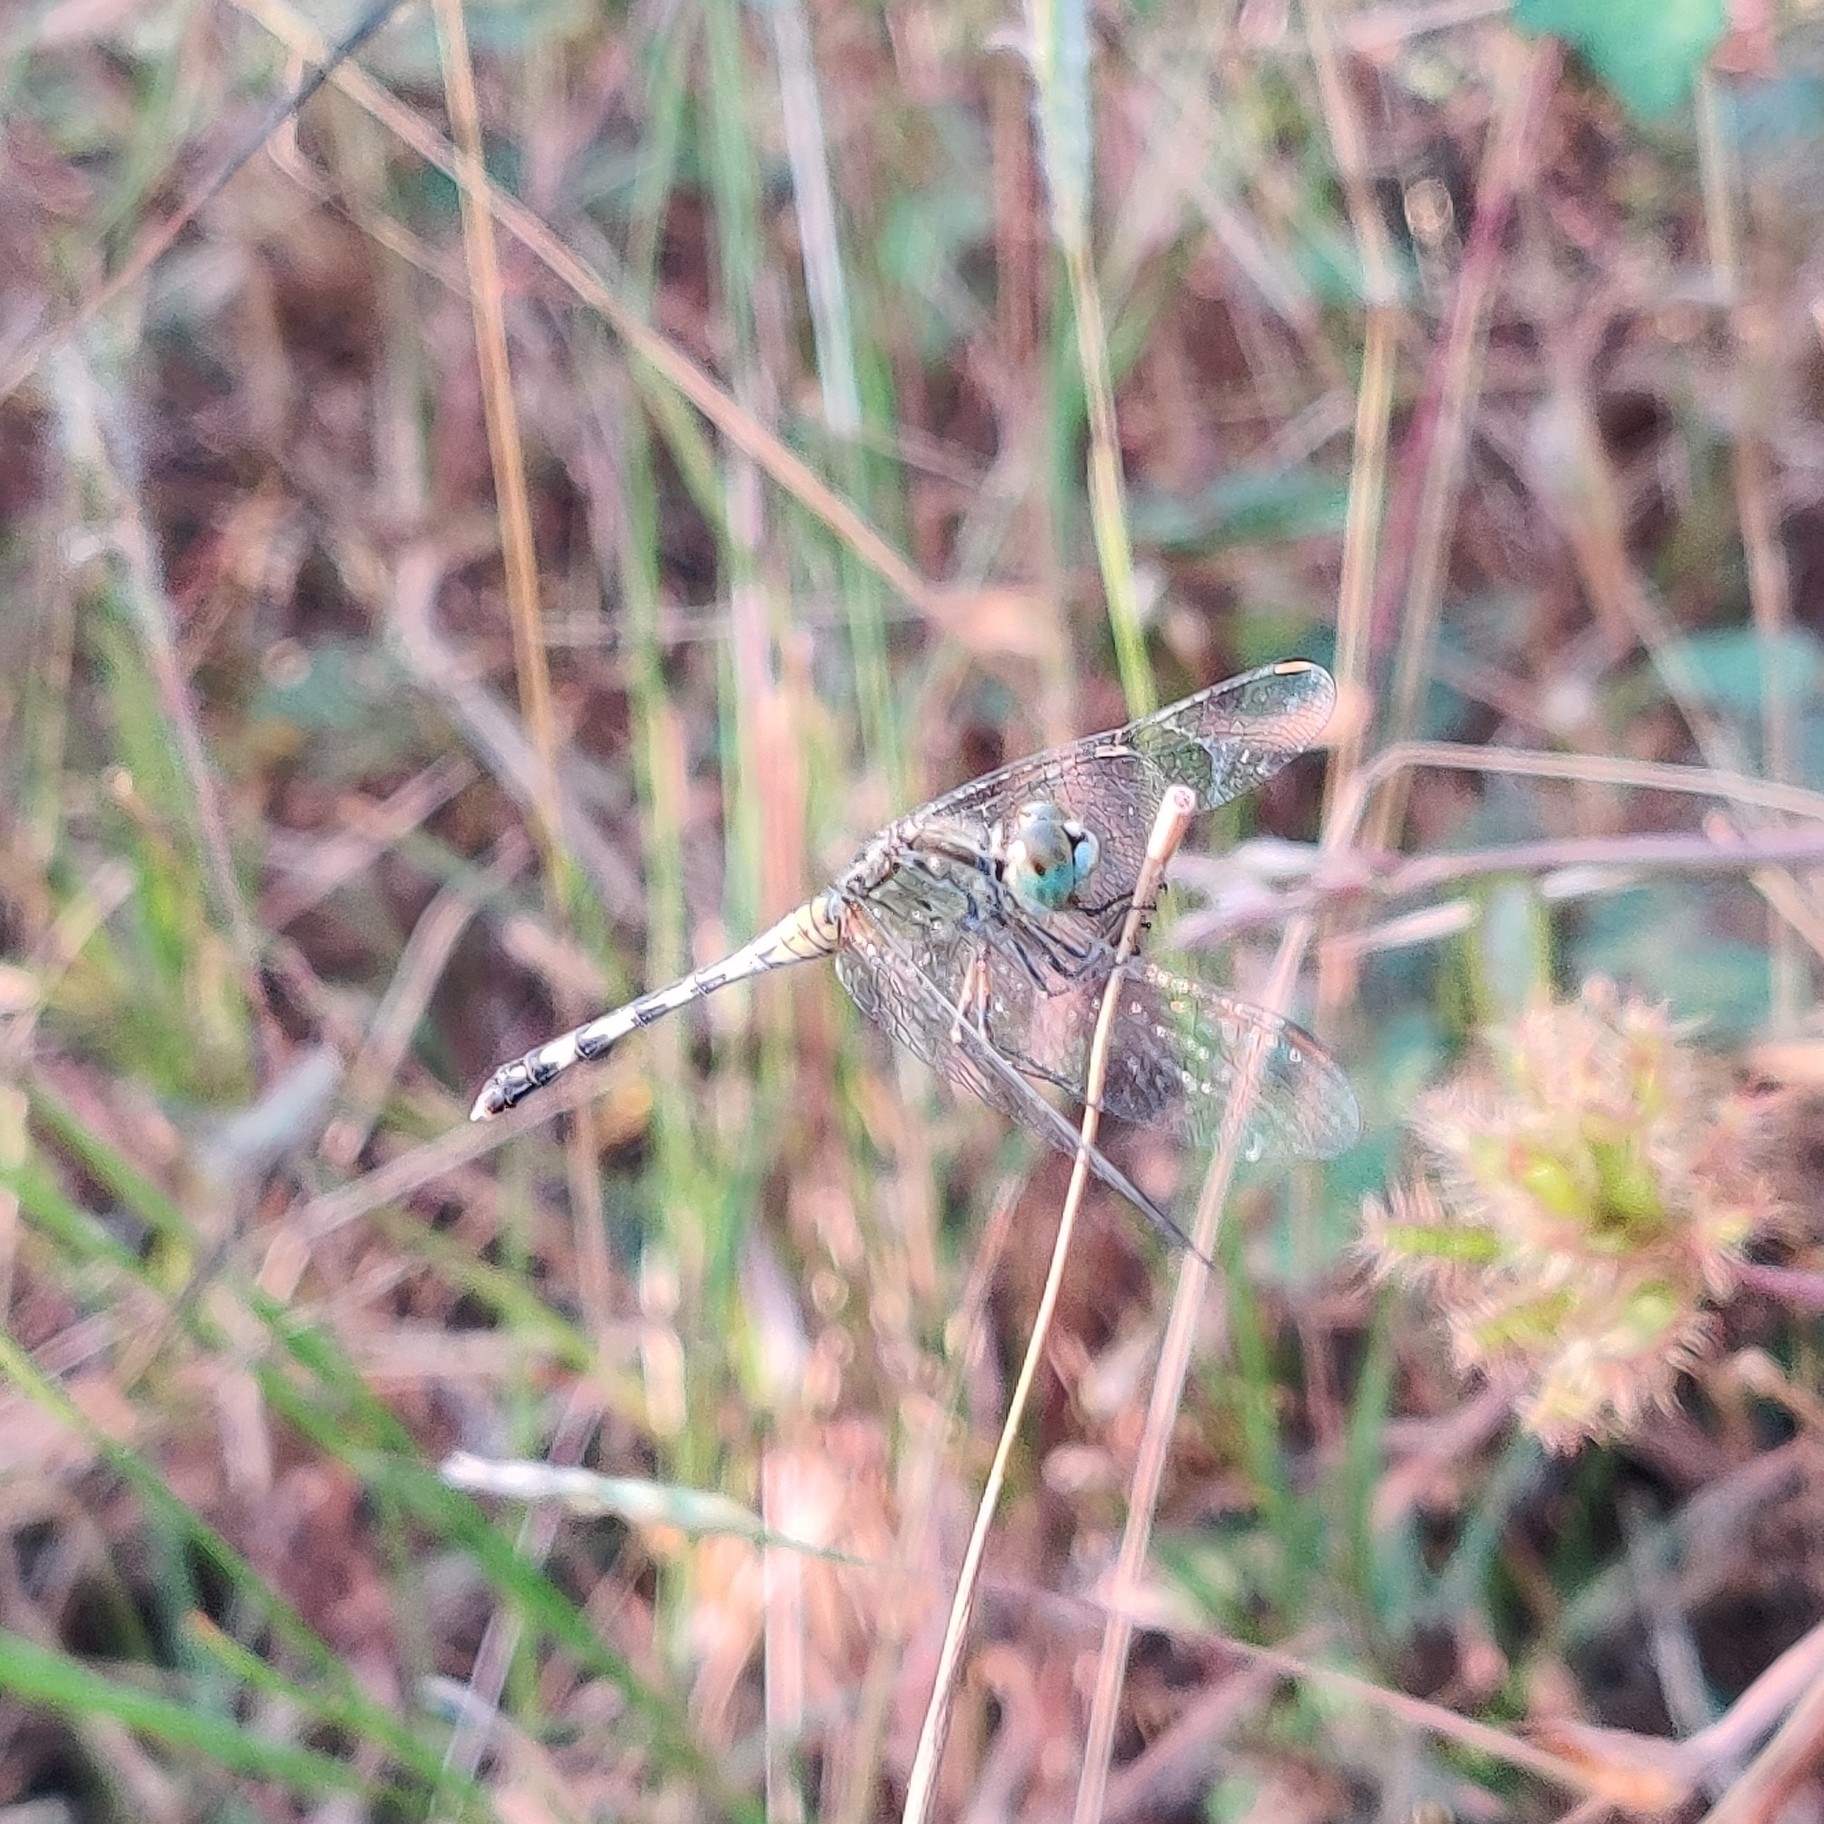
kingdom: Animalia
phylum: Arthropoda
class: Insecta
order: Odonata
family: Libellulidae
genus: Diplacodes
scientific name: Diplacodes trivialis
